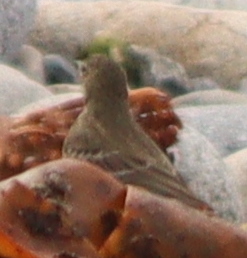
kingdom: Animalia
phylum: Chordata
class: Aves
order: Passeriformes
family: Motacillidae
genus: Anthus
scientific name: Anthus petrosus
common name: Eurasian rock pipit
